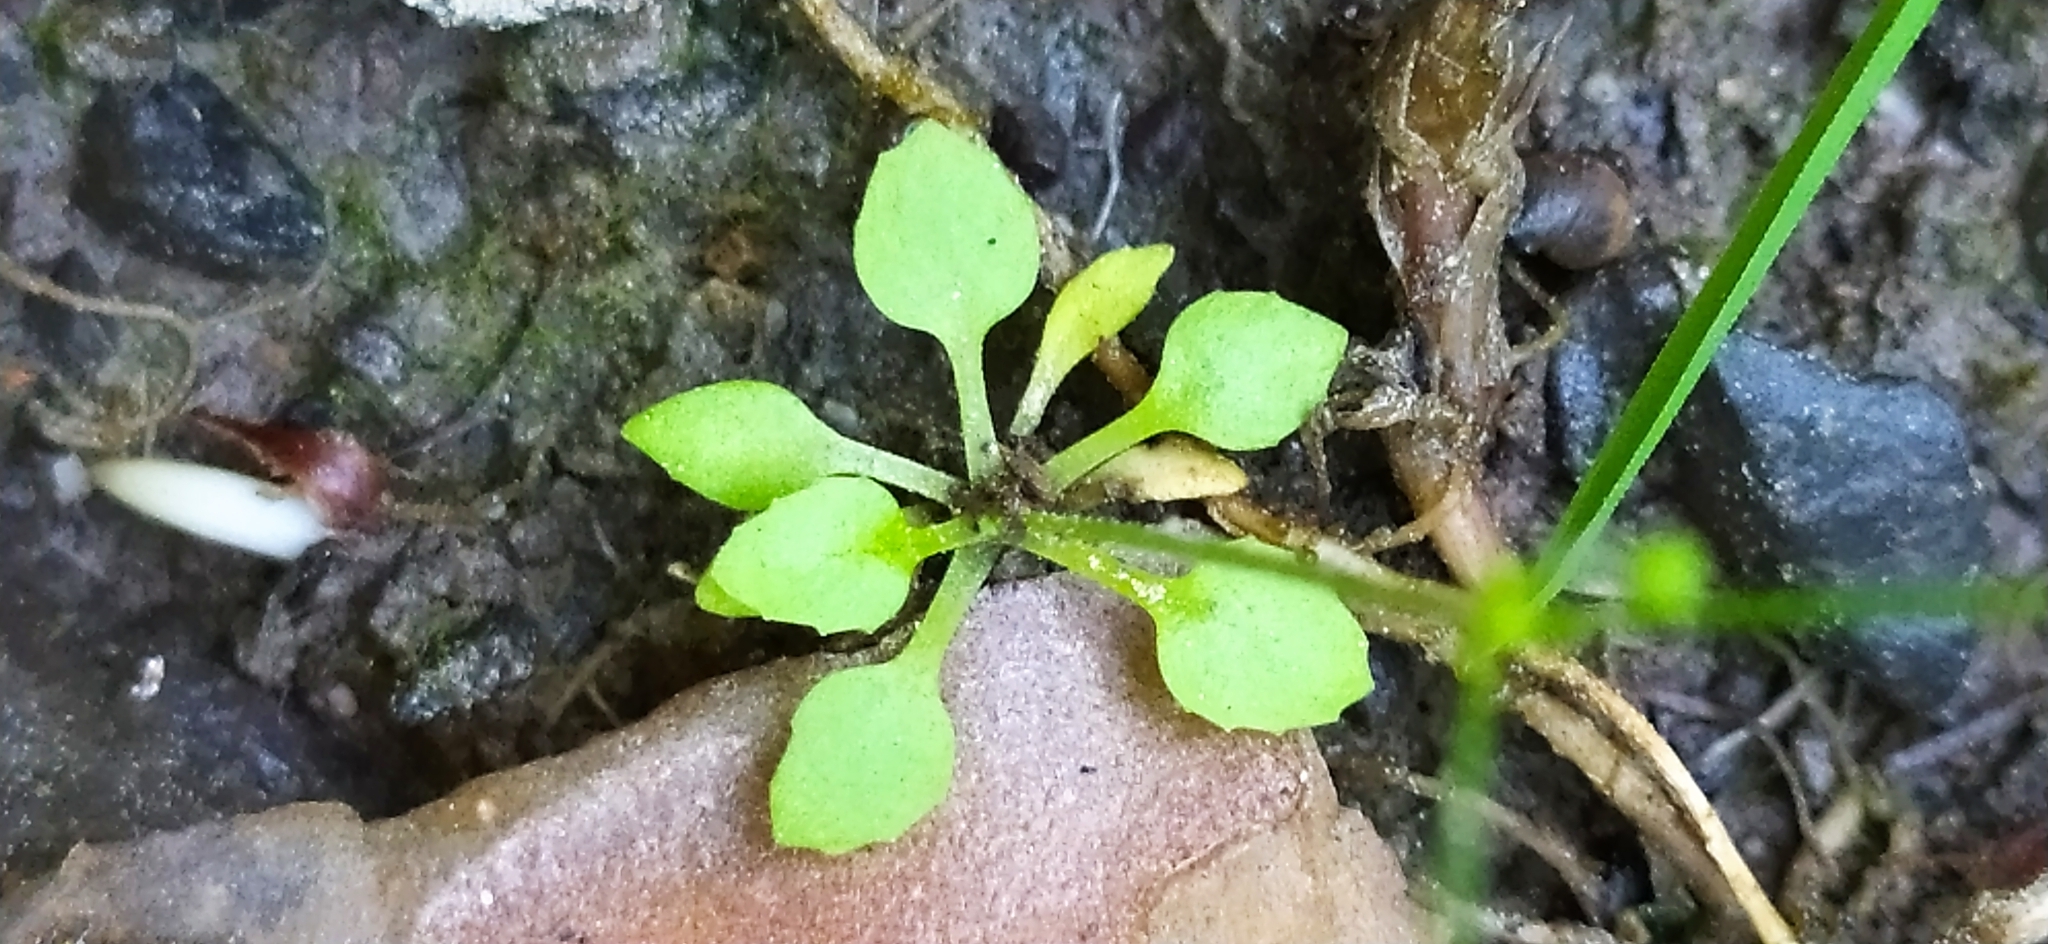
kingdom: Plantae
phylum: Tracheophyta
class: Magnoliopsida
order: Ericales
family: Primulaceae
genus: Androsace
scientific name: Androsace filiformis
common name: Filiform rock jasmine
